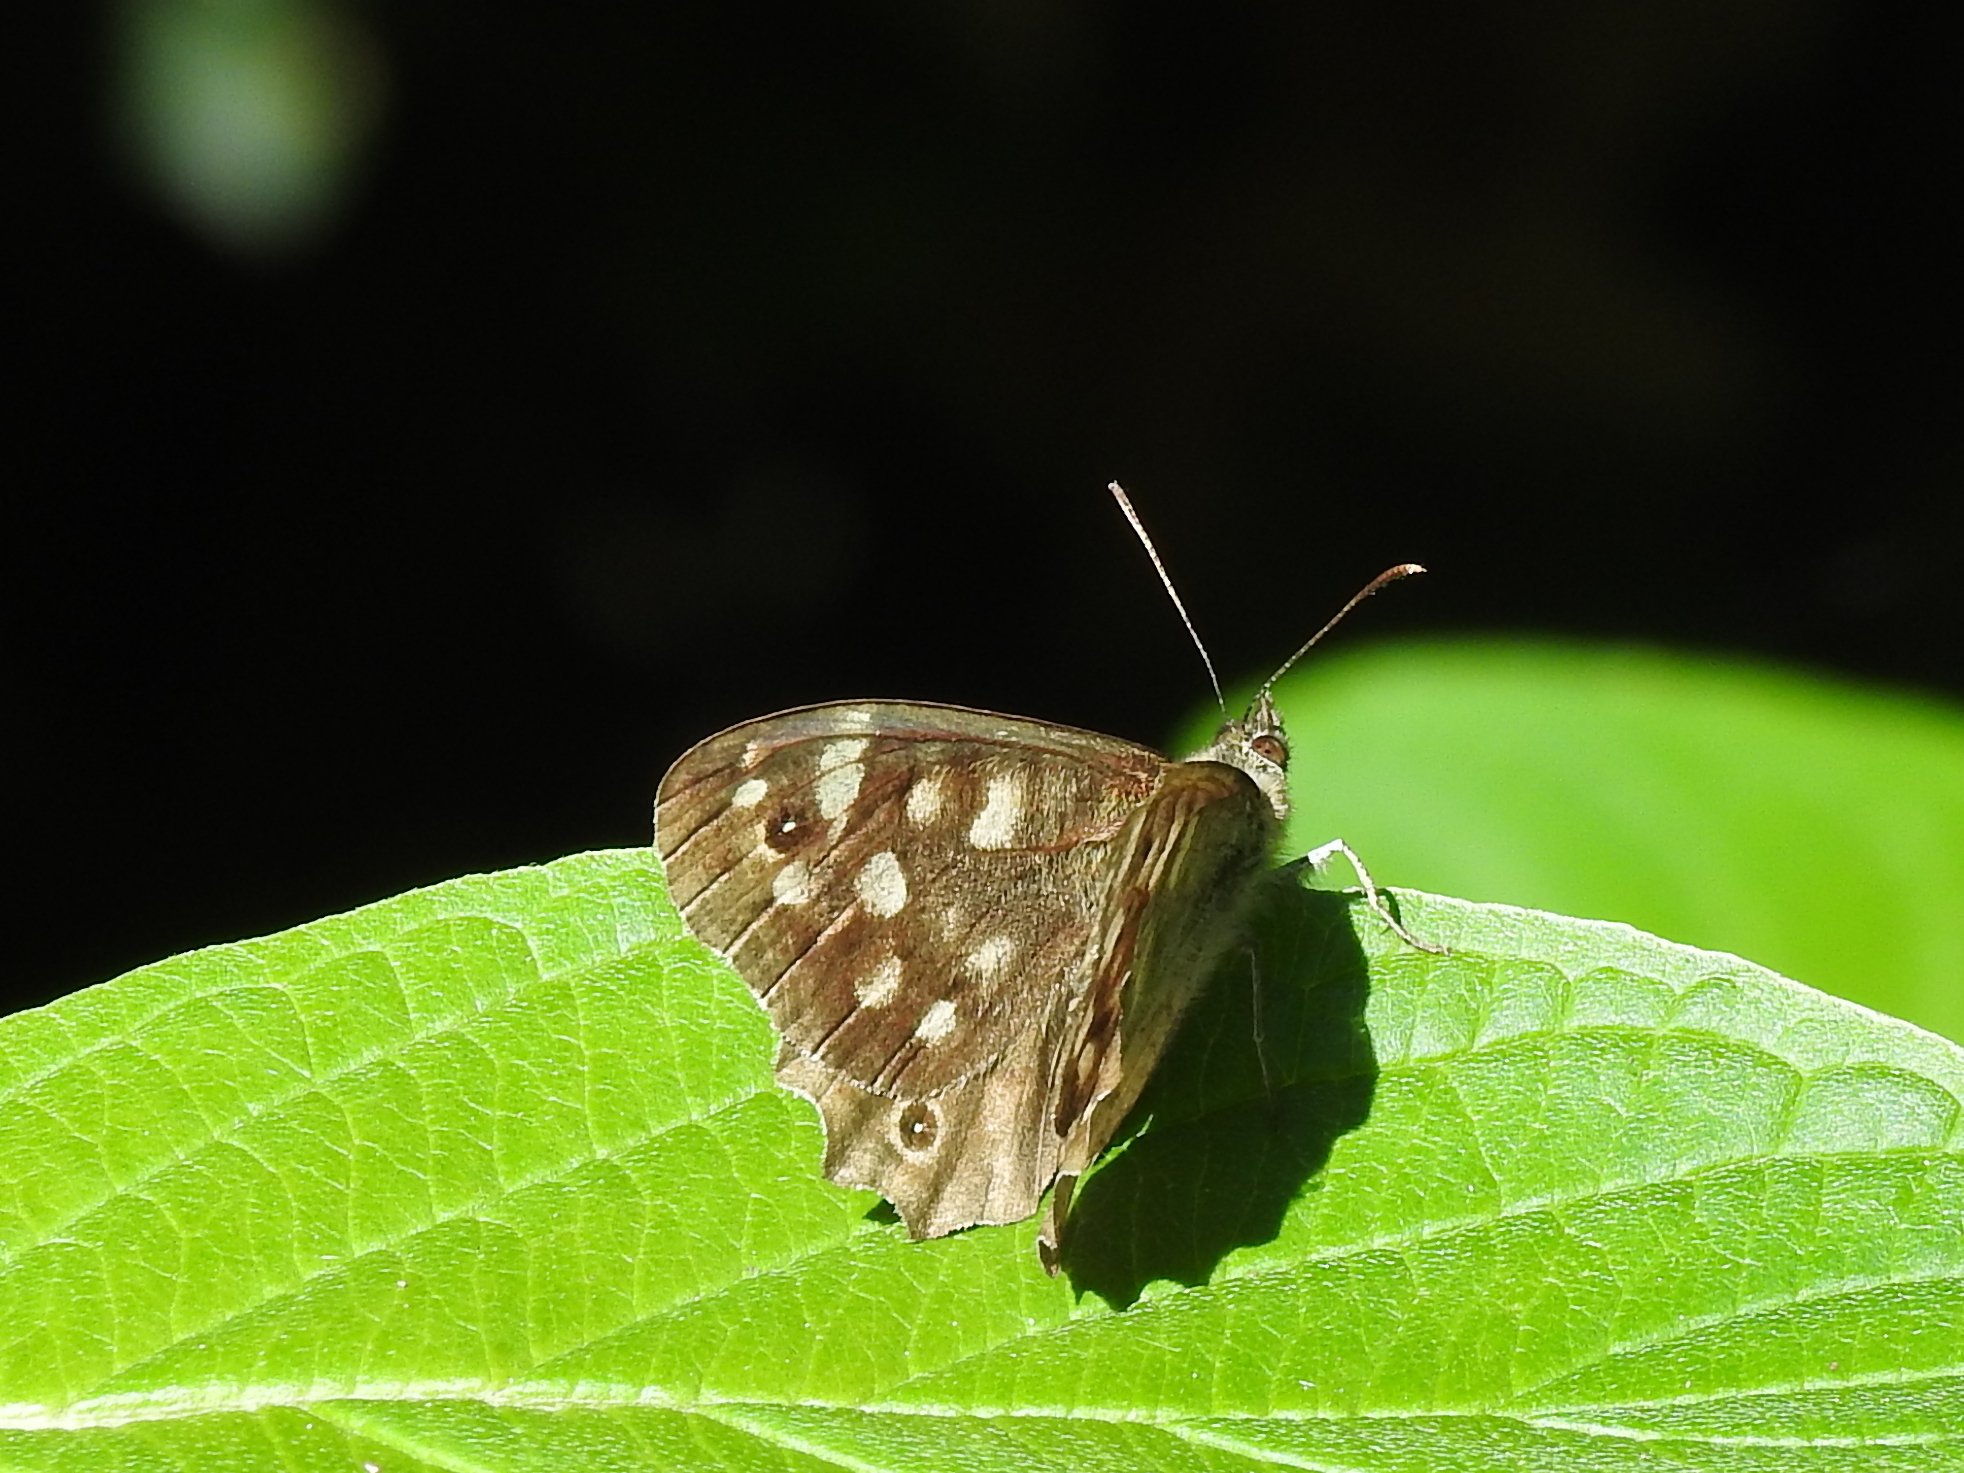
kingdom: Animalia
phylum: Arthropoda
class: Insecta
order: Lepidoptera
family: Nymphalidae
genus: Pararge
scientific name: Pararge aegeria
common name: Speckled wood
